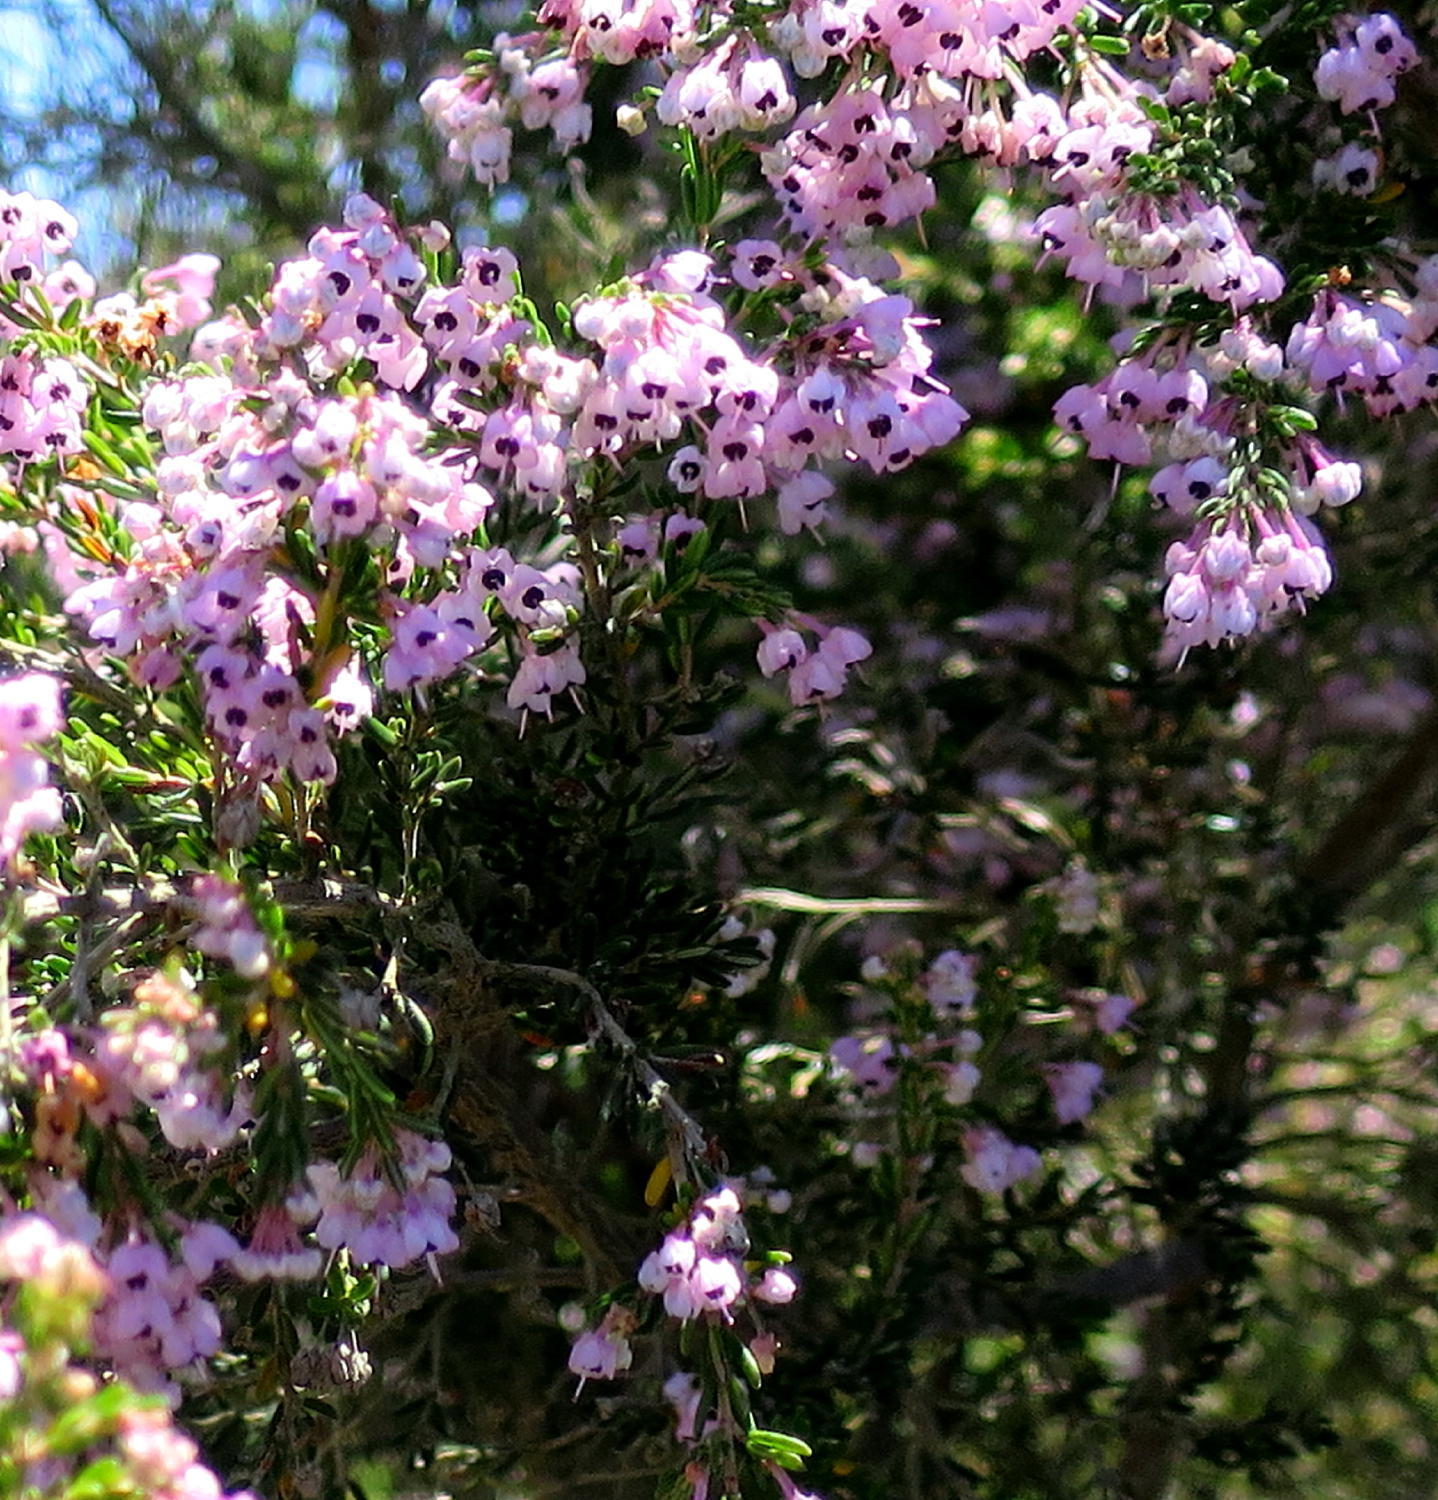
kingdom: Plantae
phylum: Tracheophyta
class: Magnoliopsida
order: Ericales
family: Ericaceae
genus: Erica
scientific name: Erica canaliculata
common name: Hairy grey heather
